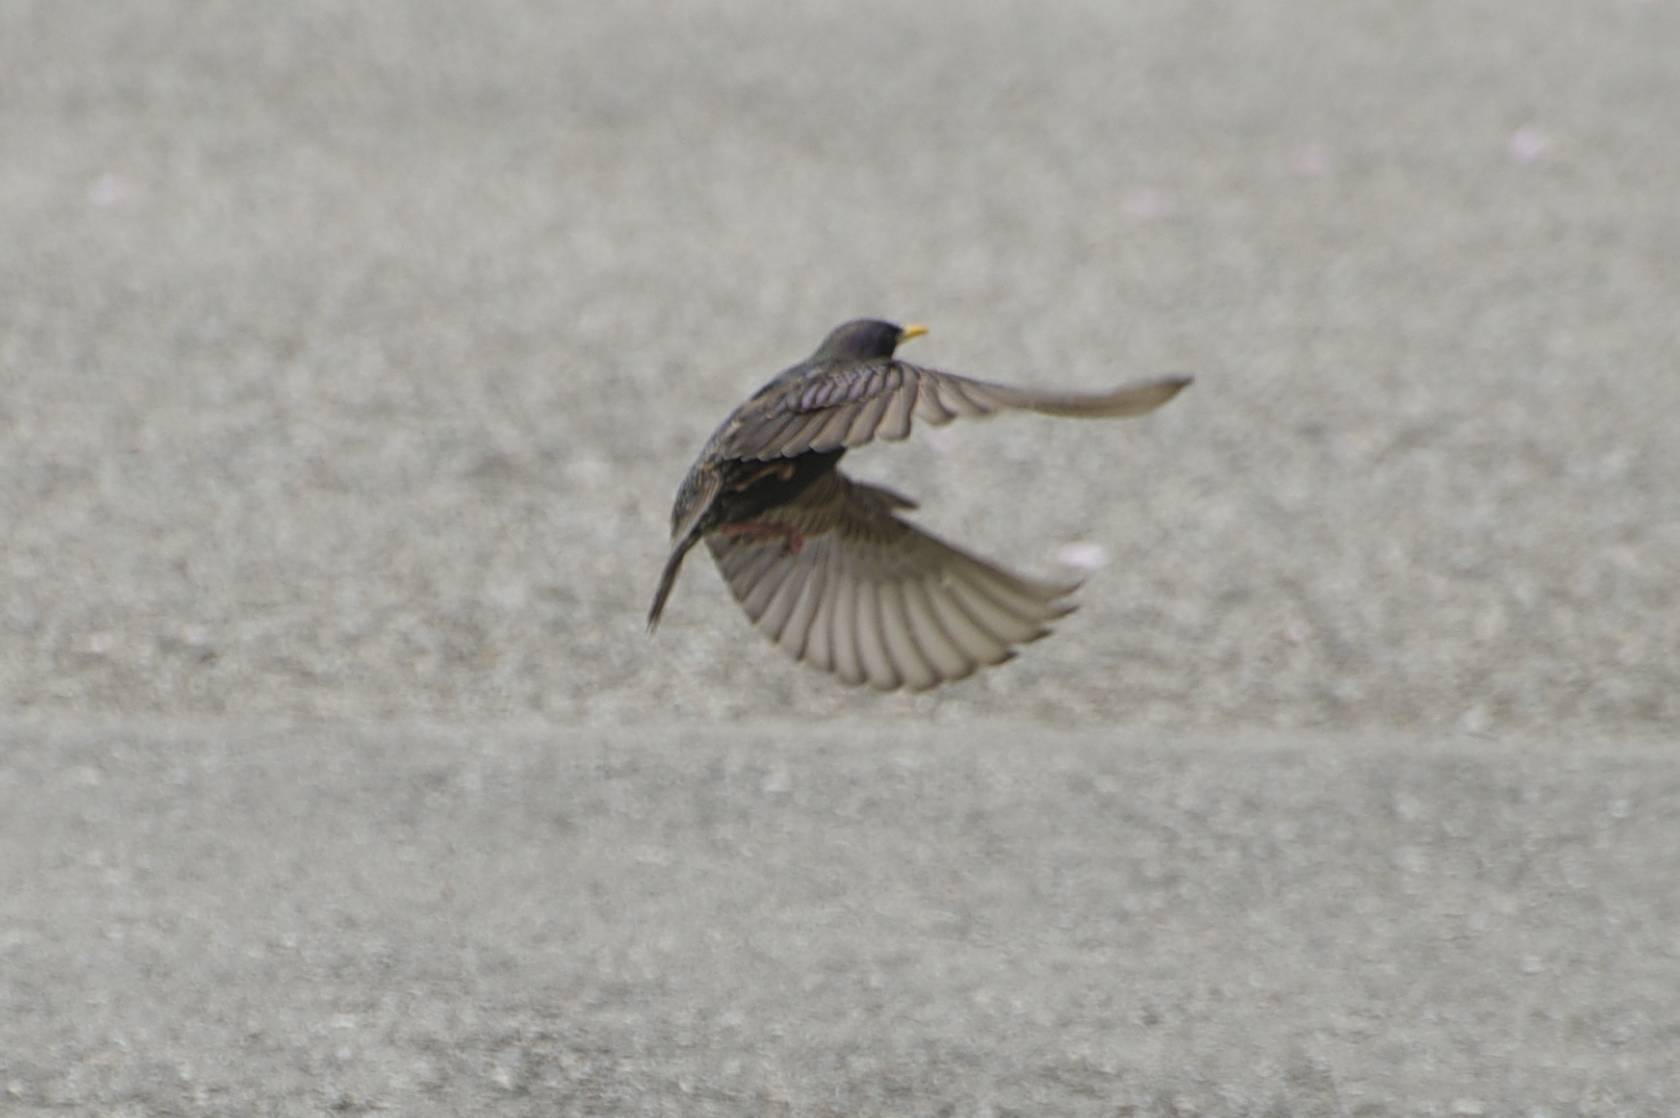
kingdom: Animalia
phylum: Chordata
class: Aves
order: Passeriformes
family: Sturnidae
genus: Sturnus
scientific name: Sturnus vulgaris
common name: Common starling
